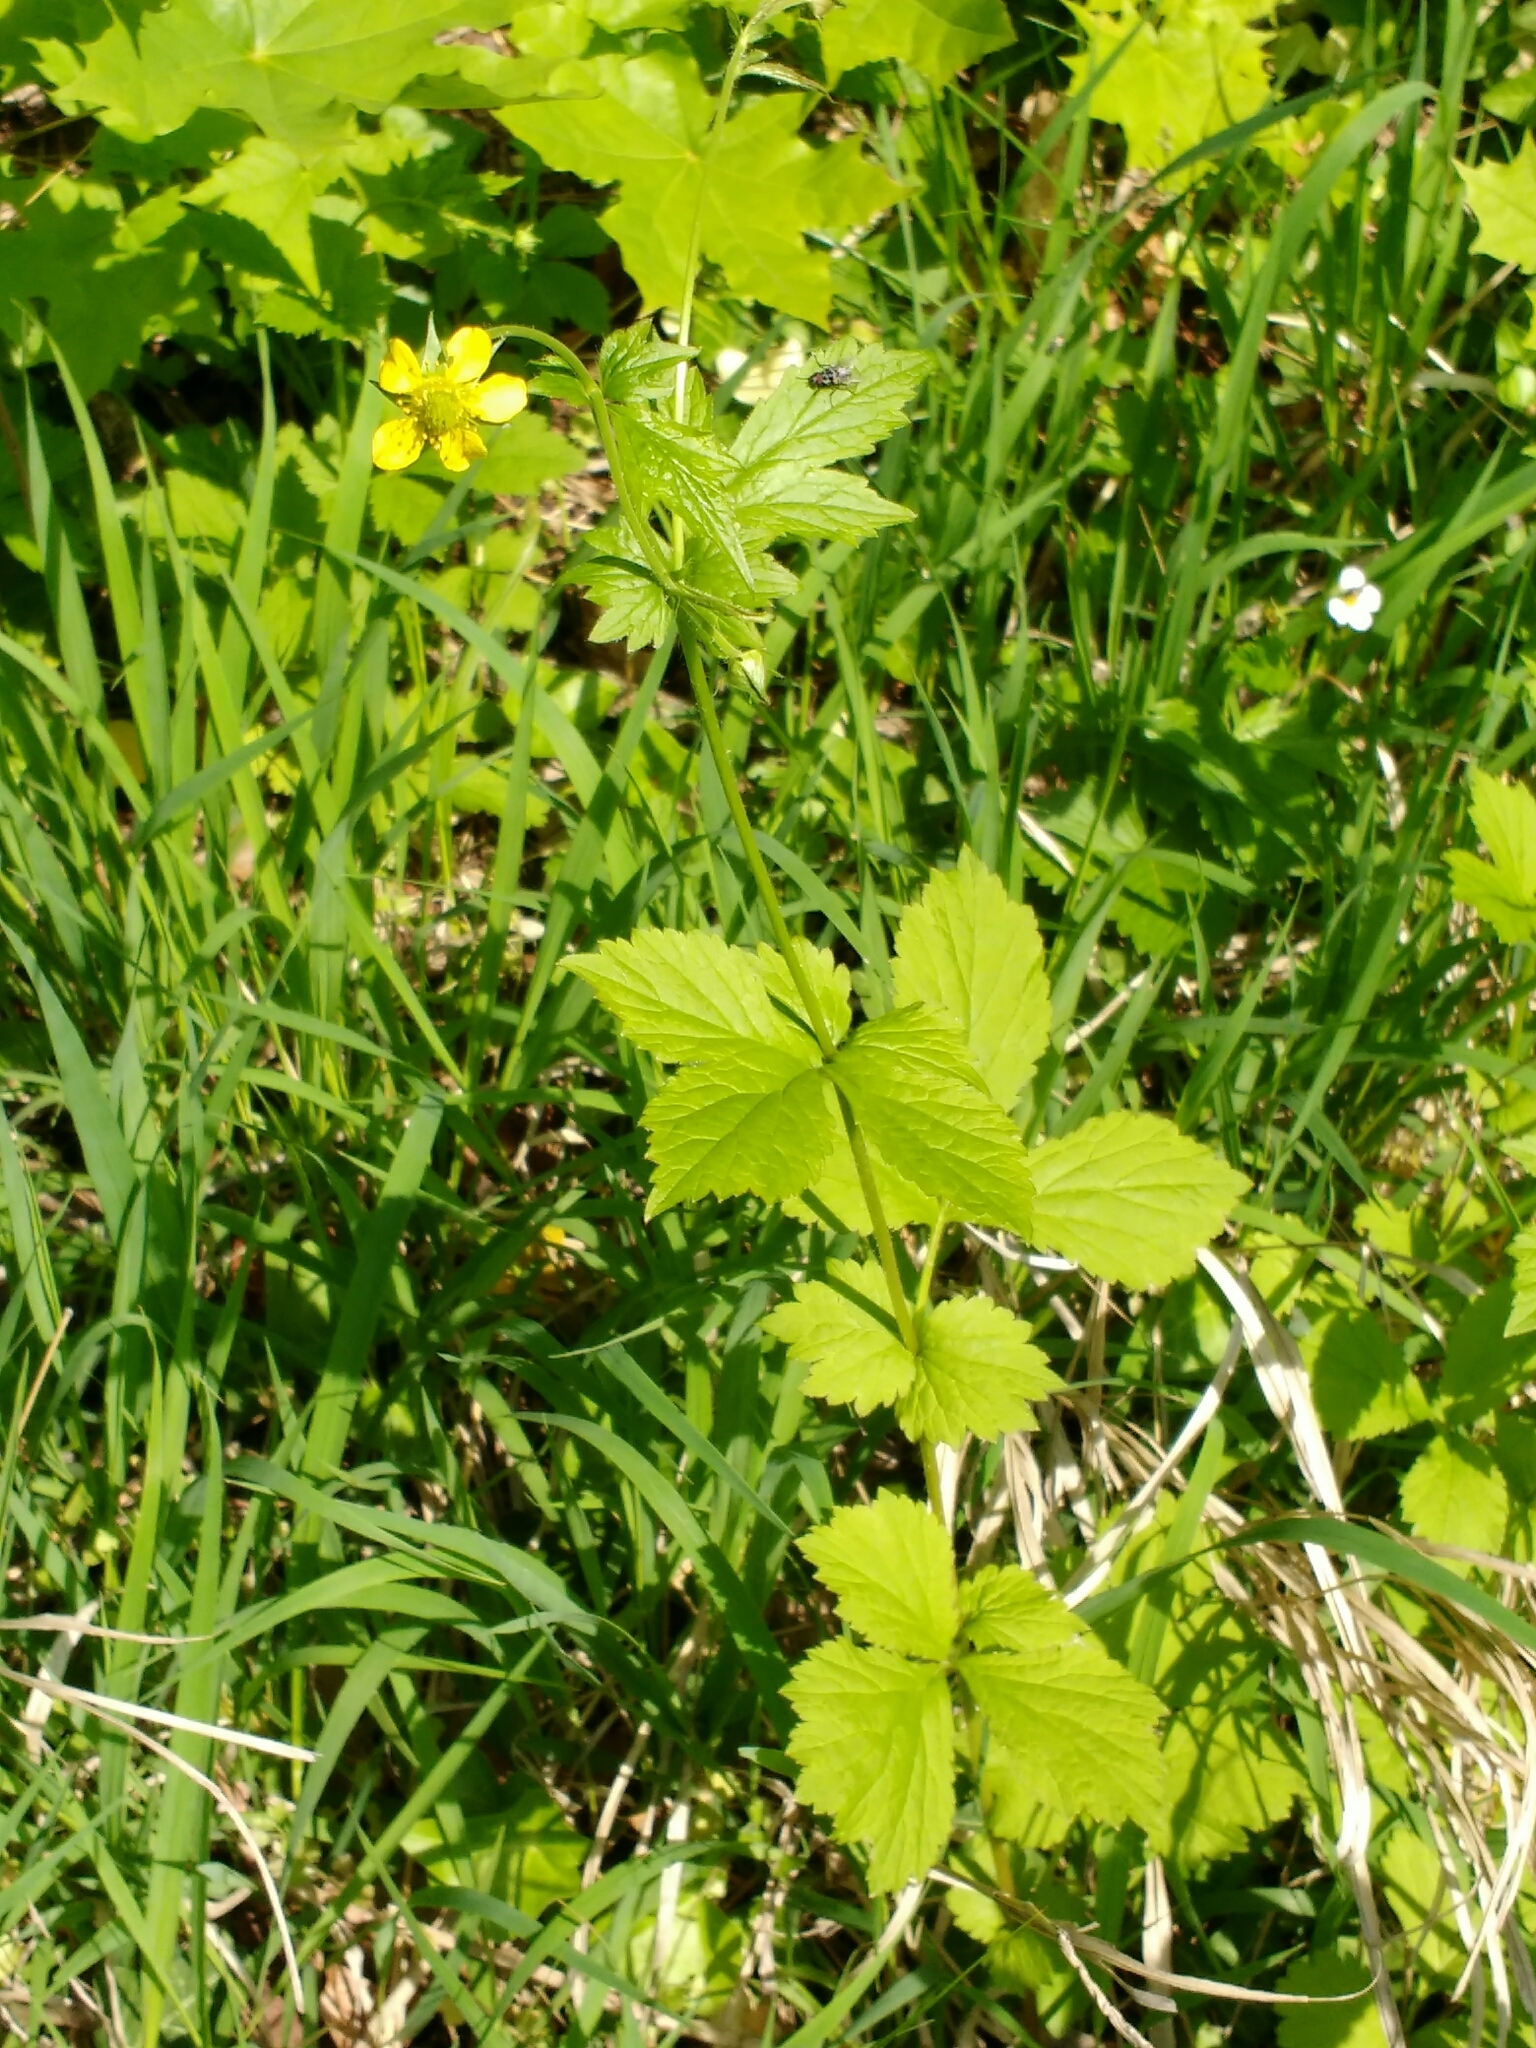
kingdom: Plantae
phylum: Tracheophyta
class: Magnoliopsida
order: Rosales
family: Rosaceae
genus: Geum
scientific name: Geum urbanum
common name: Wood avens
